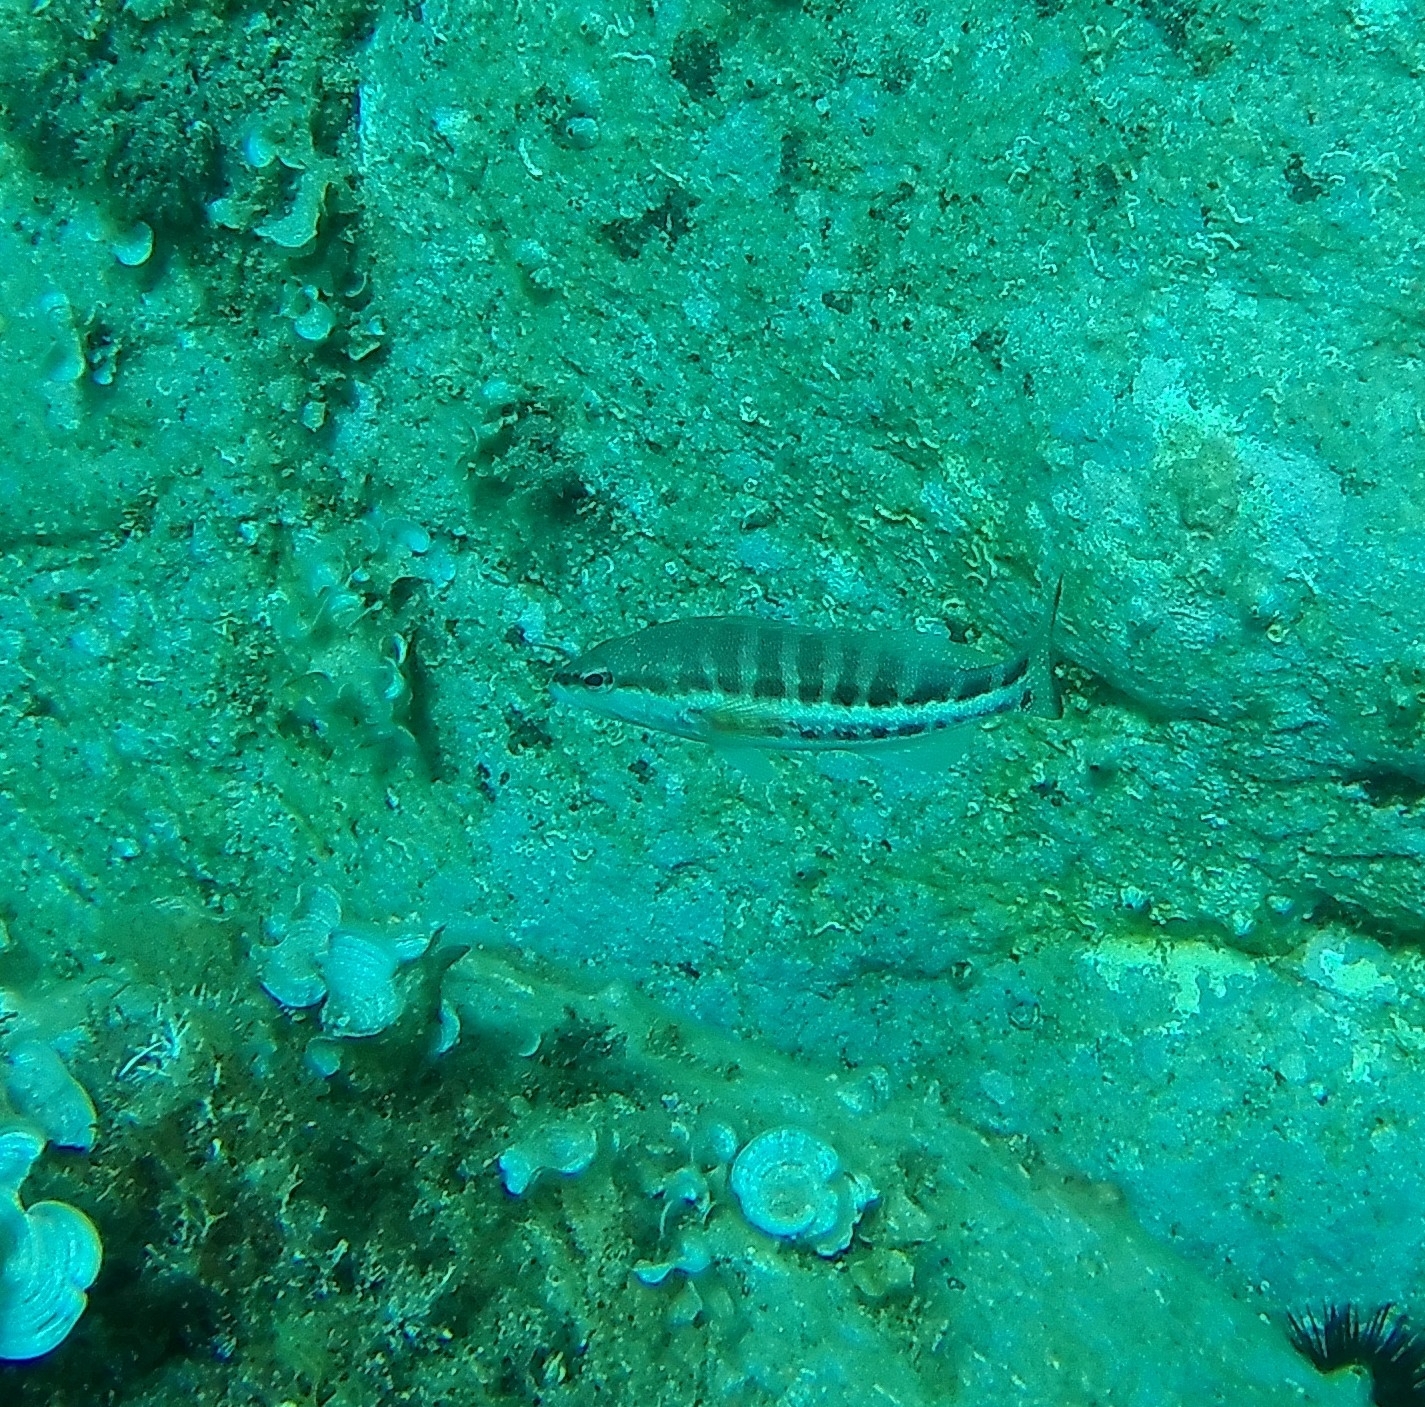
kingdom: Animalia
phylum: Chordata
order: Perciformes
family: Serranidae
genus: Serranus
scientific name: Serranus cabrilla
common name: Comber
